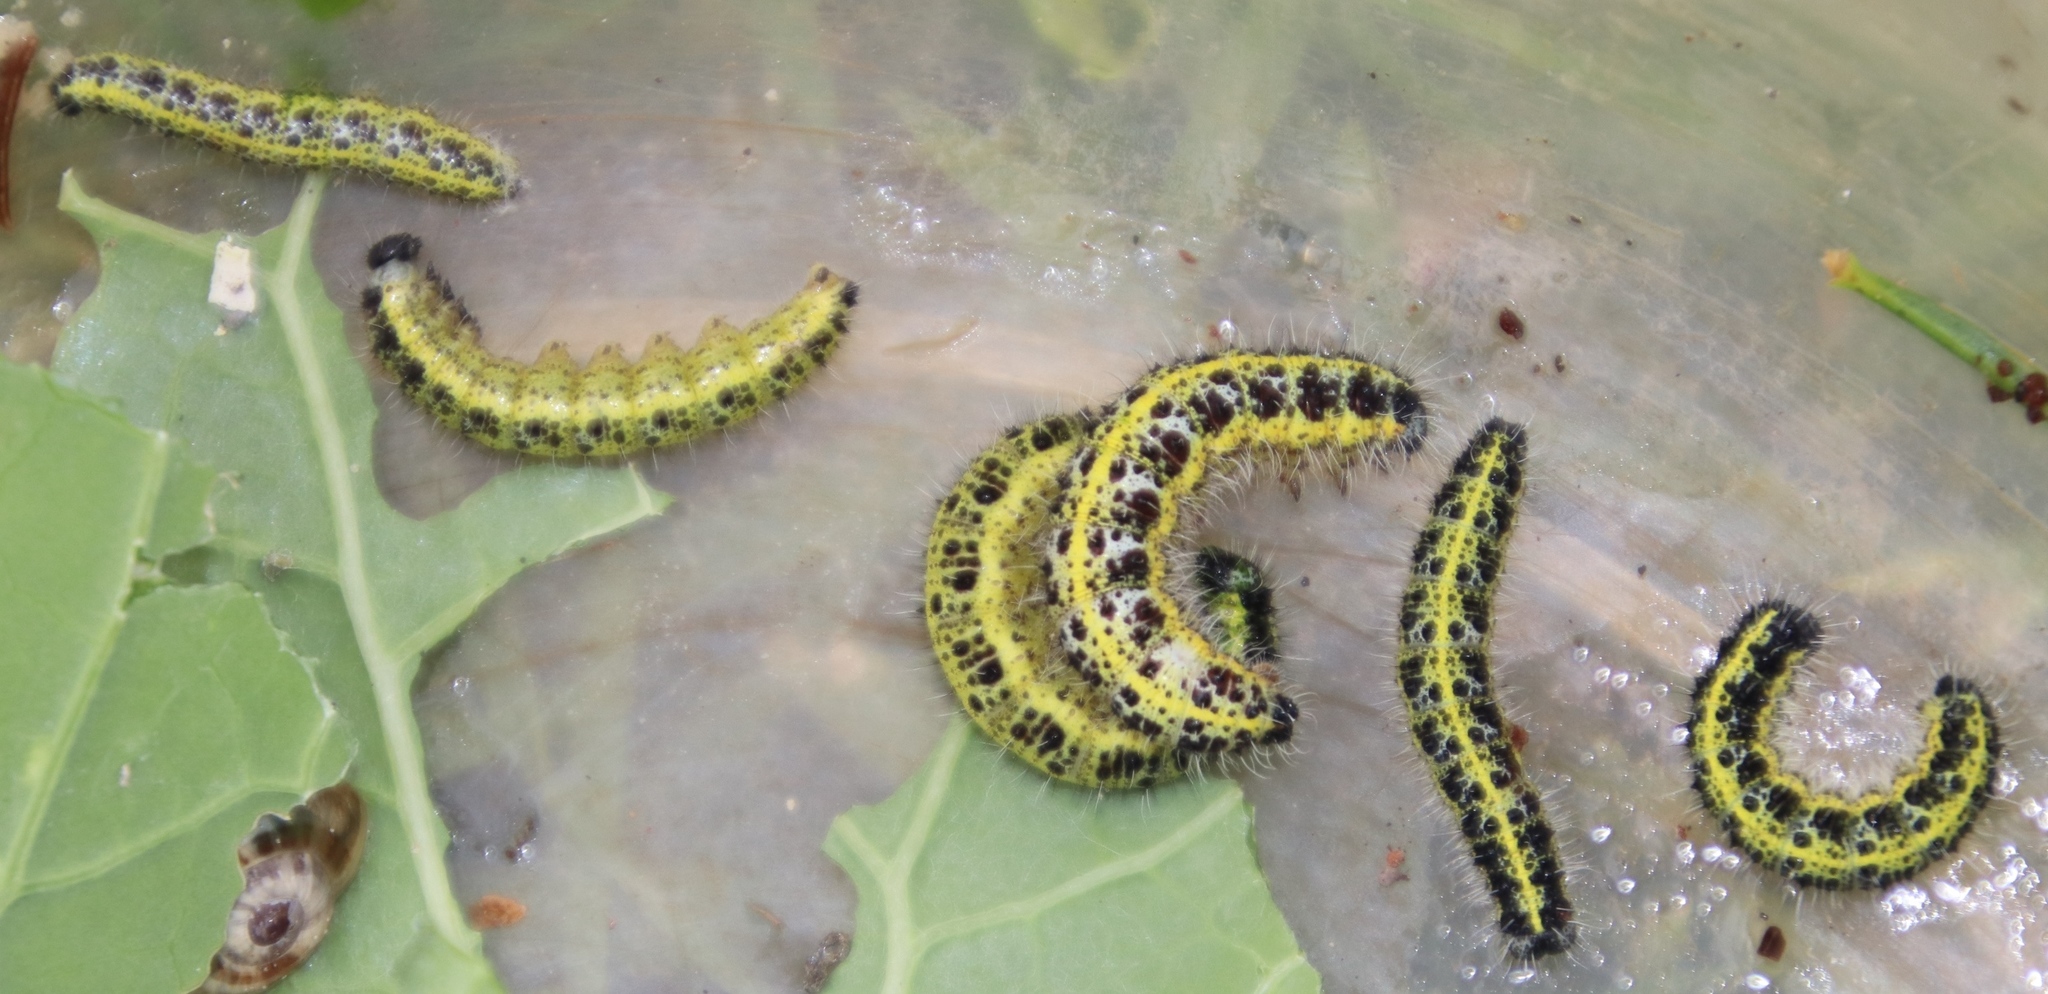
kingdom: Animalia
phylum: Arthropoda
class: Insecta
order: Lepidoptera
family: Pieridae
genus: Pieris
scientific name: Pieris brassicae
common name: Large white
